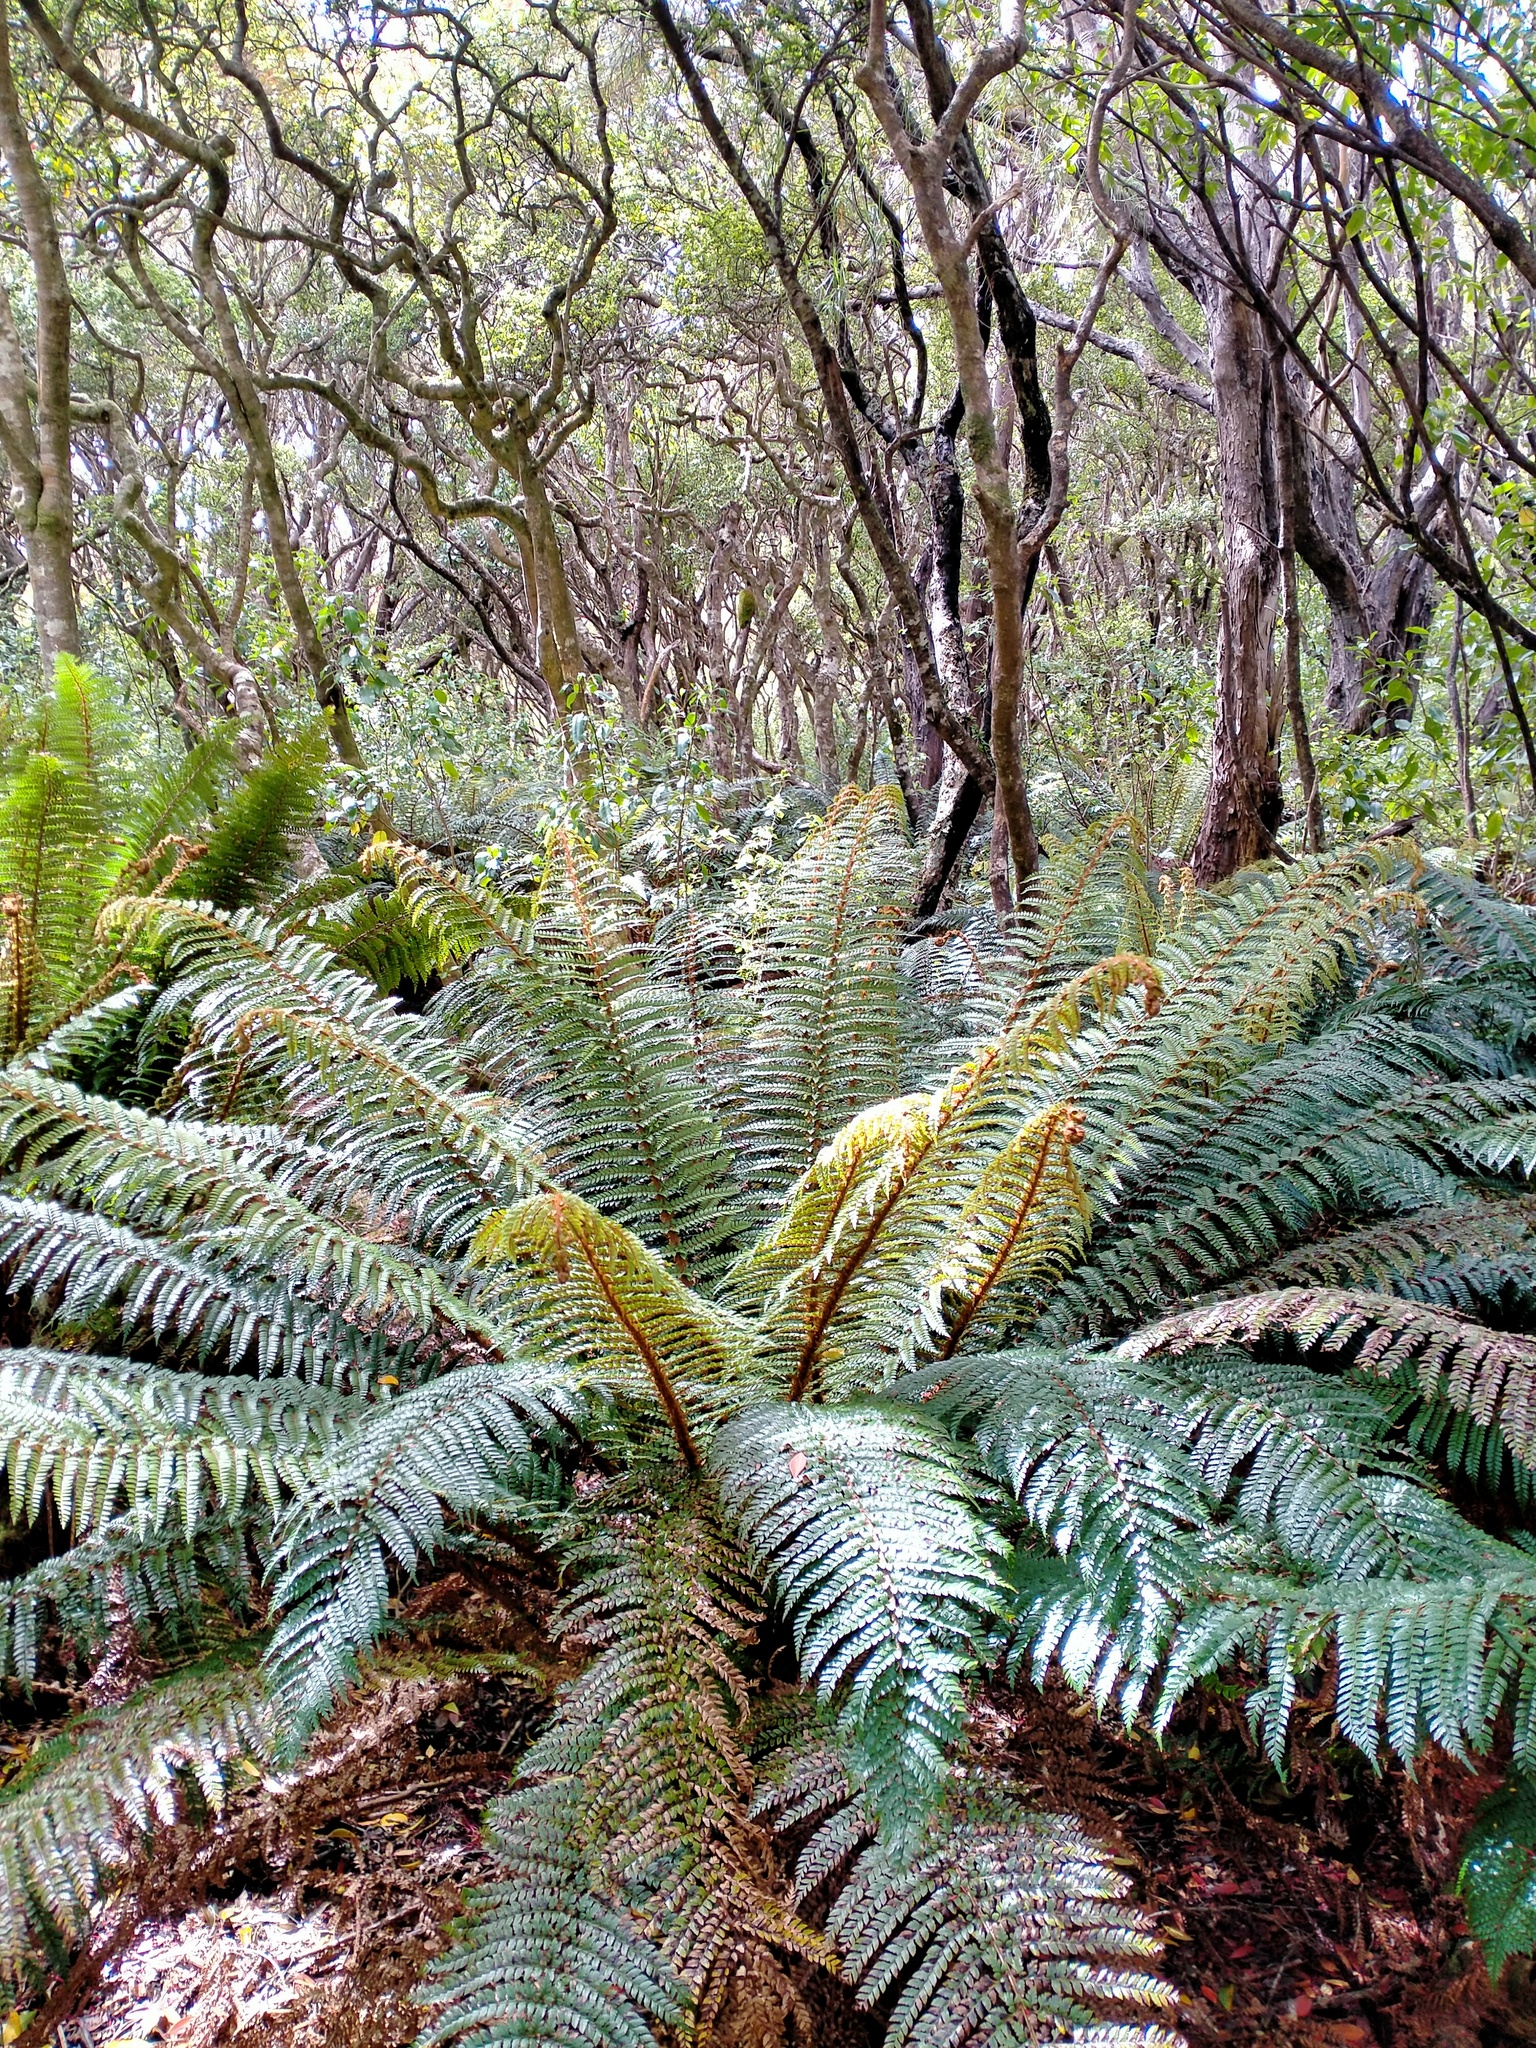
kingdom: Plantae
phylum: Tracheophyta
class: Polypodiopsida
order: Polypodiales
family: Dryopteridaceae
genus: Polystichum
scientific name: Polystichum vestitum
